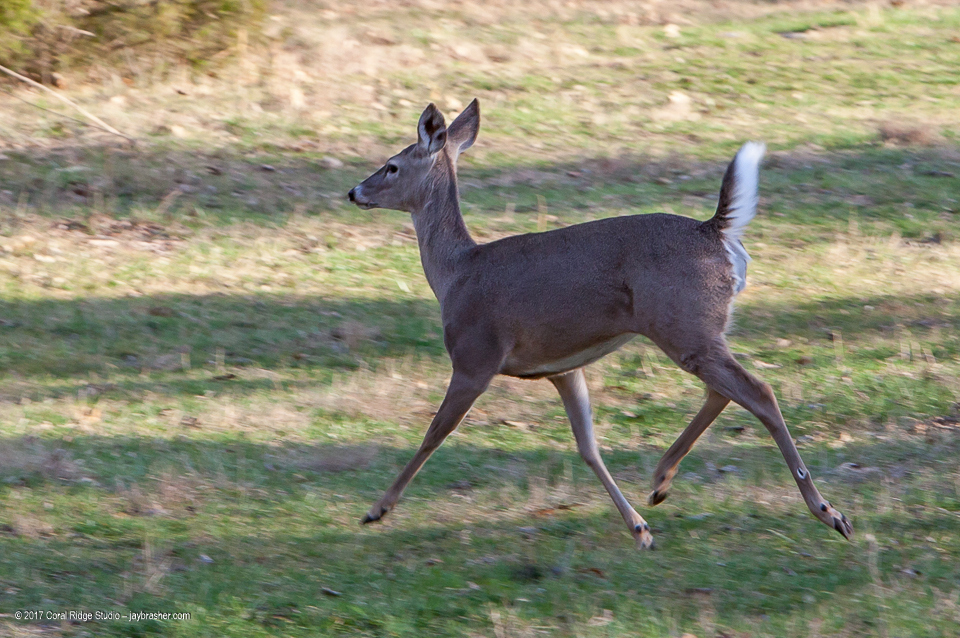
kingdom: Animalia
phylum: Chordata
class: Mammalia
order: Artiodactyla
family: Cervidae
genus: Odocoileus
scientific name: Odocoileus virginianus
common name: White-tailed deer
